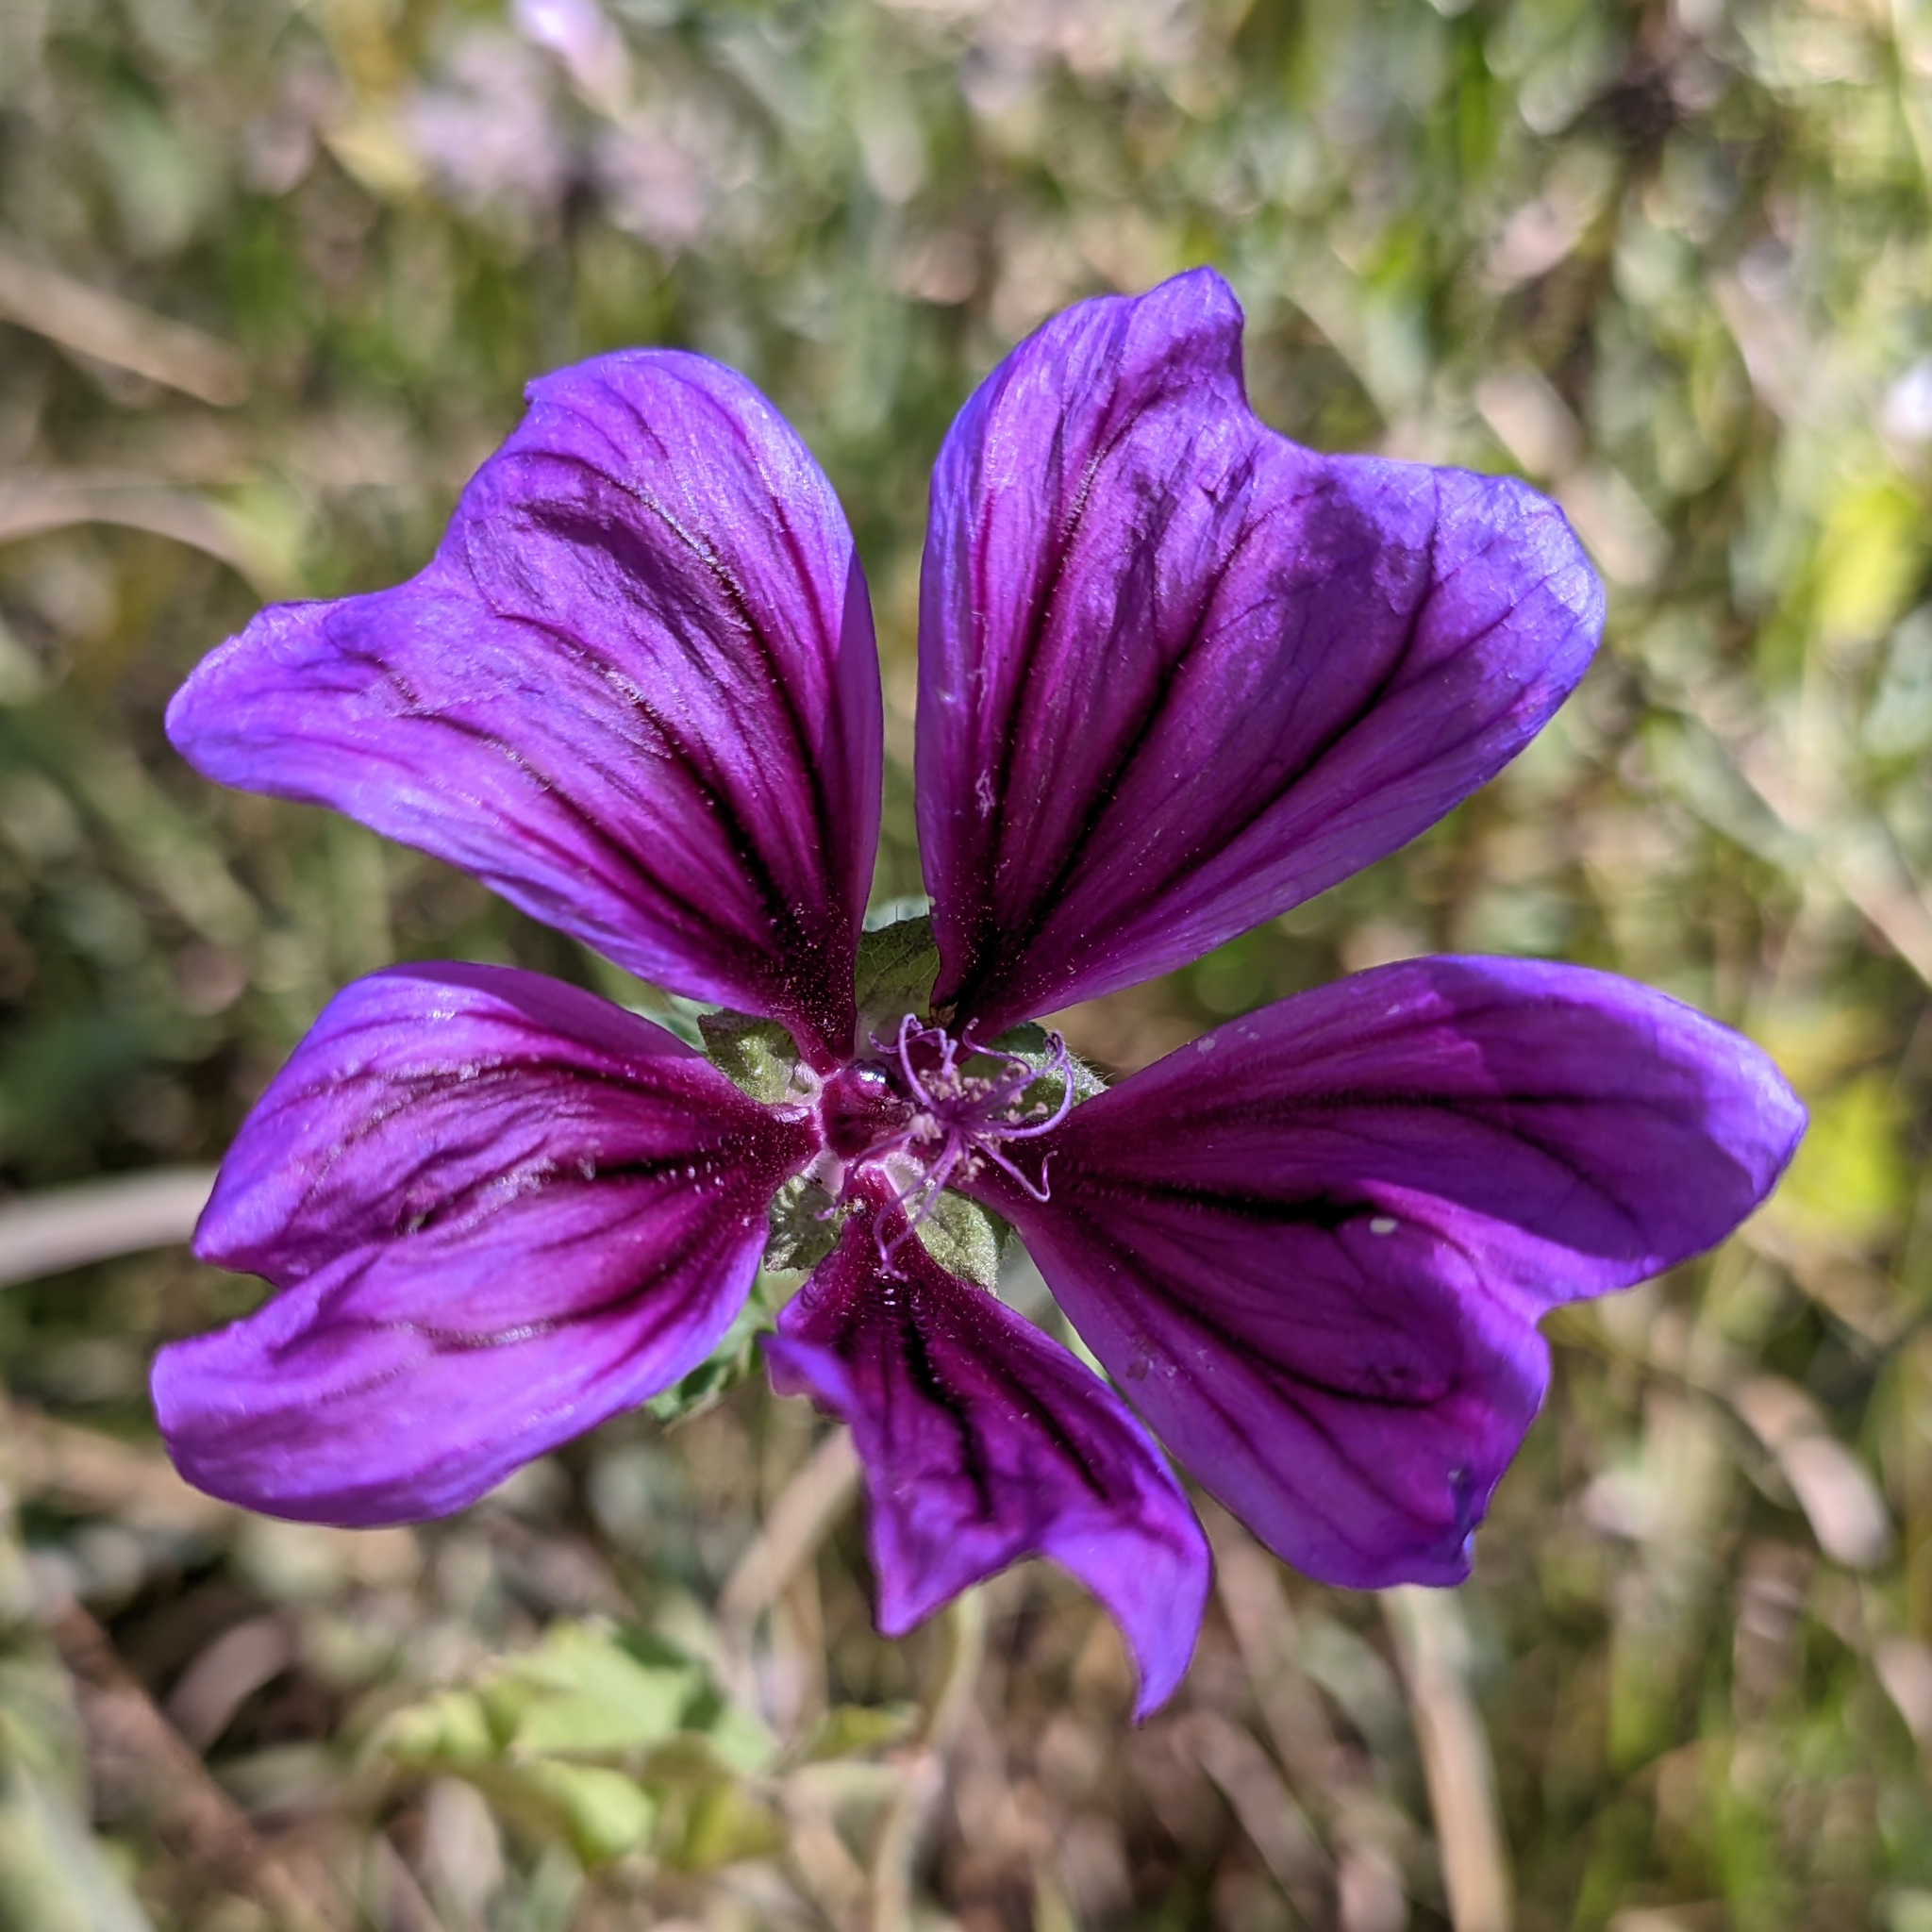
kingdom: Plantae
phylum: Tracheophyta
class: Magnoliopsida
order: Malvales
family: Malvaceae
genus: Malva
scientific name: Malva sylvestris
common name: Common mallow
